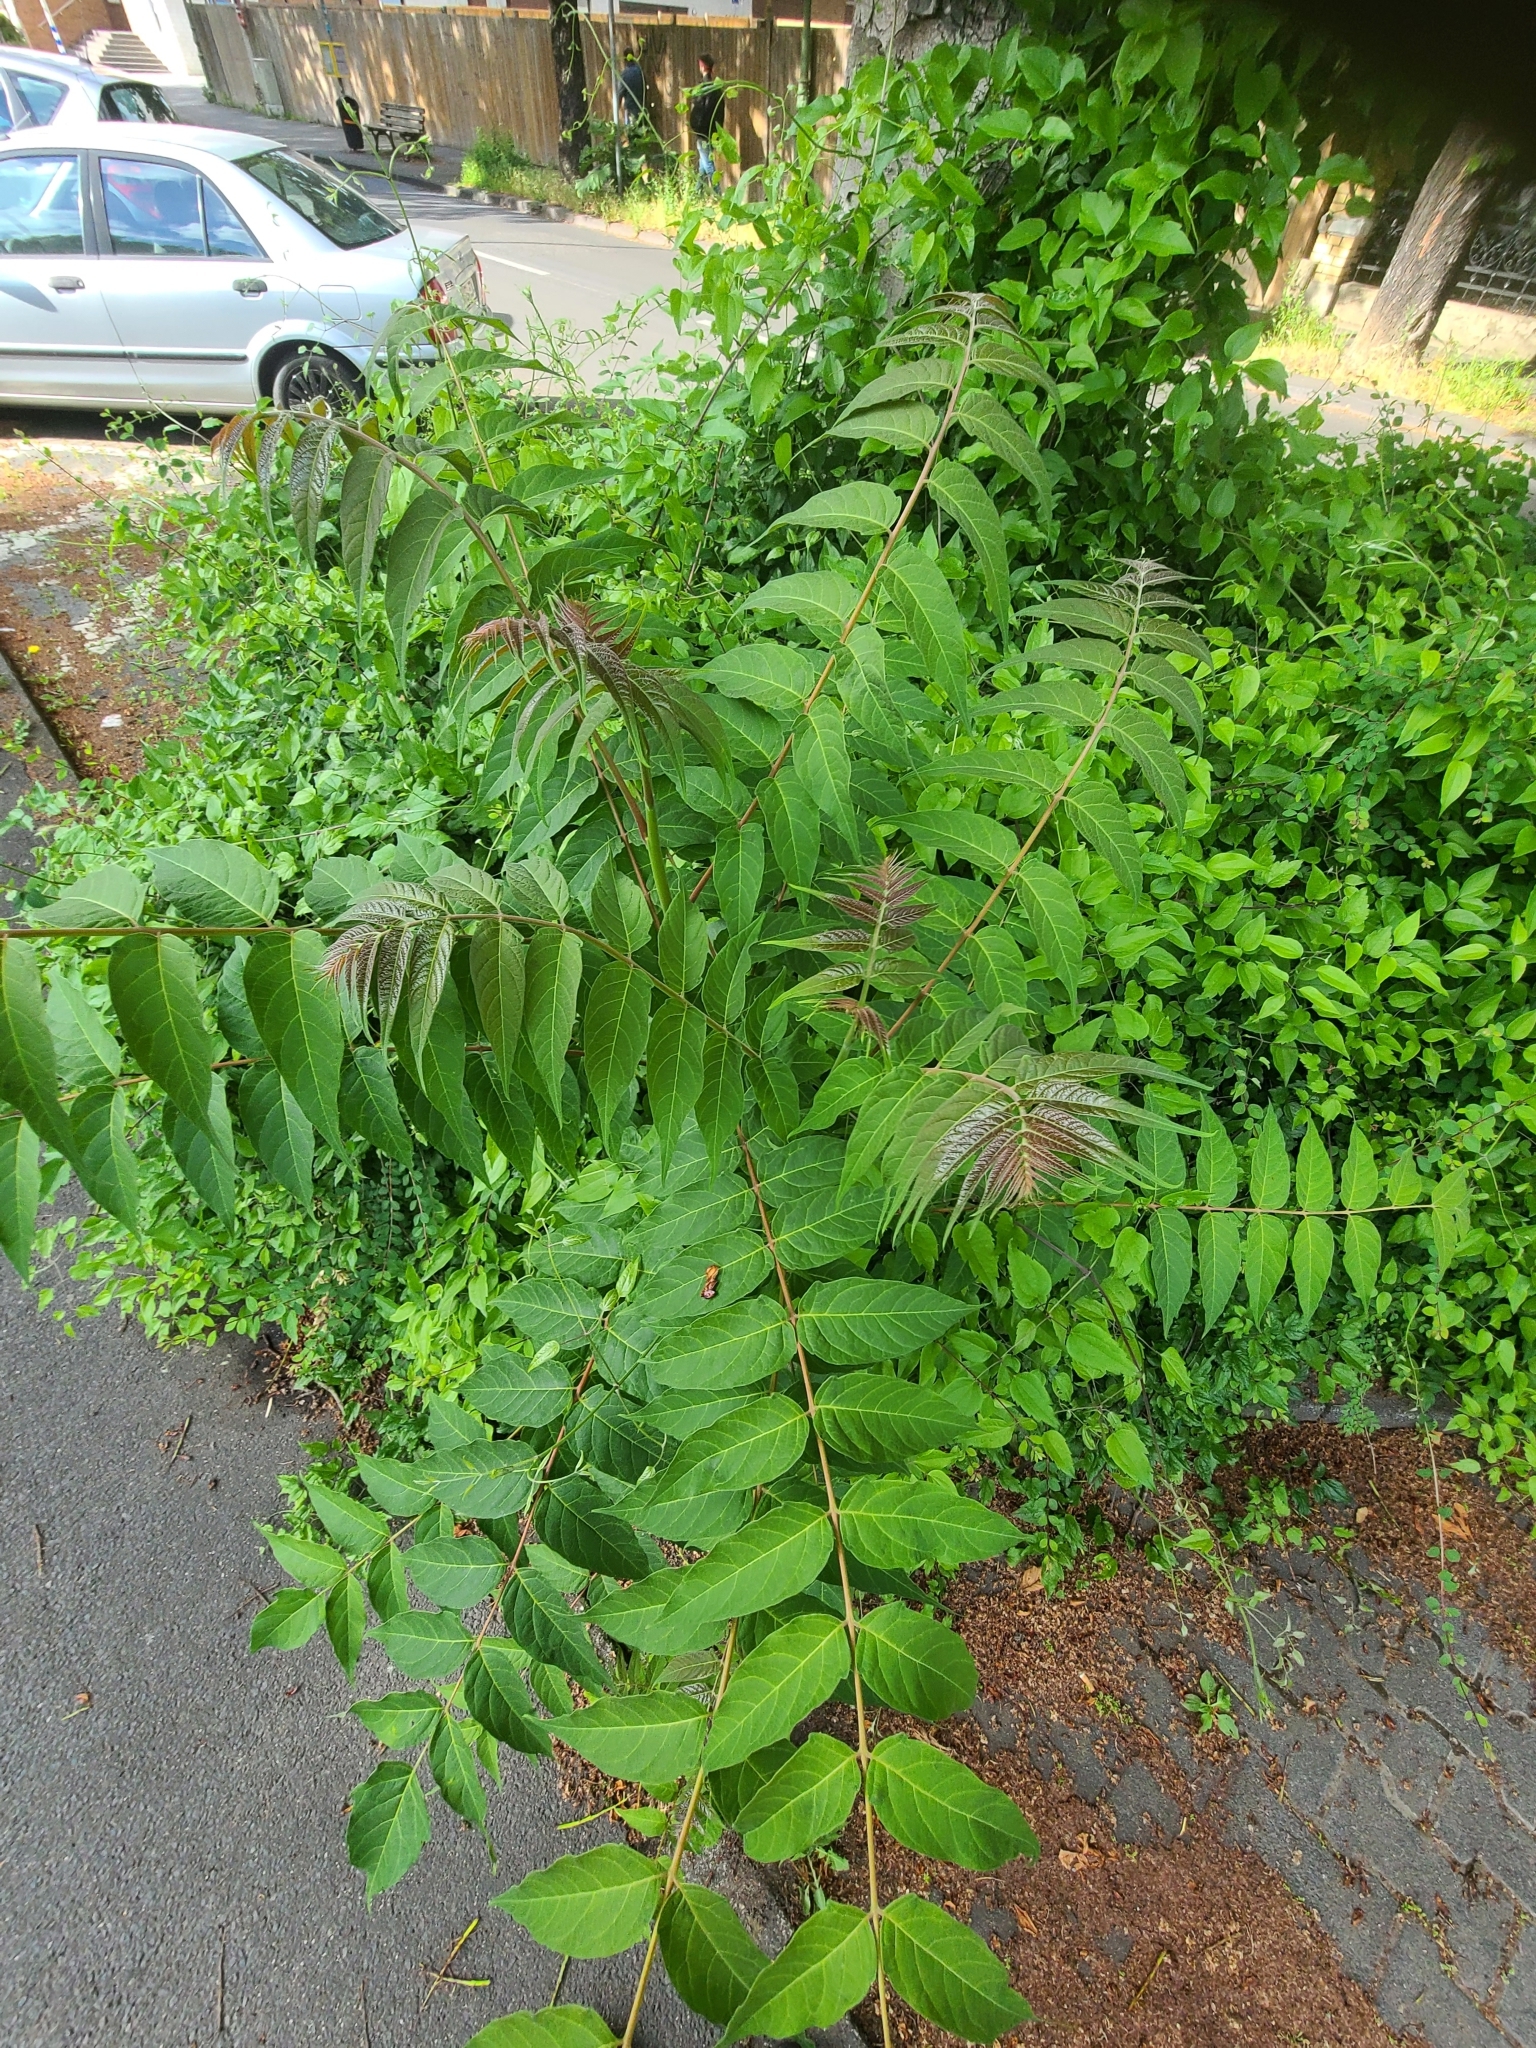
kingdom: Plantae
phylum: Tracheophyta
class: Magnoliopsida
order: Sapindales
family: Simaroubaceae
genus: Ailanthus
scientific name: Ailanthus altissima
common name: Tree-of-heaven
